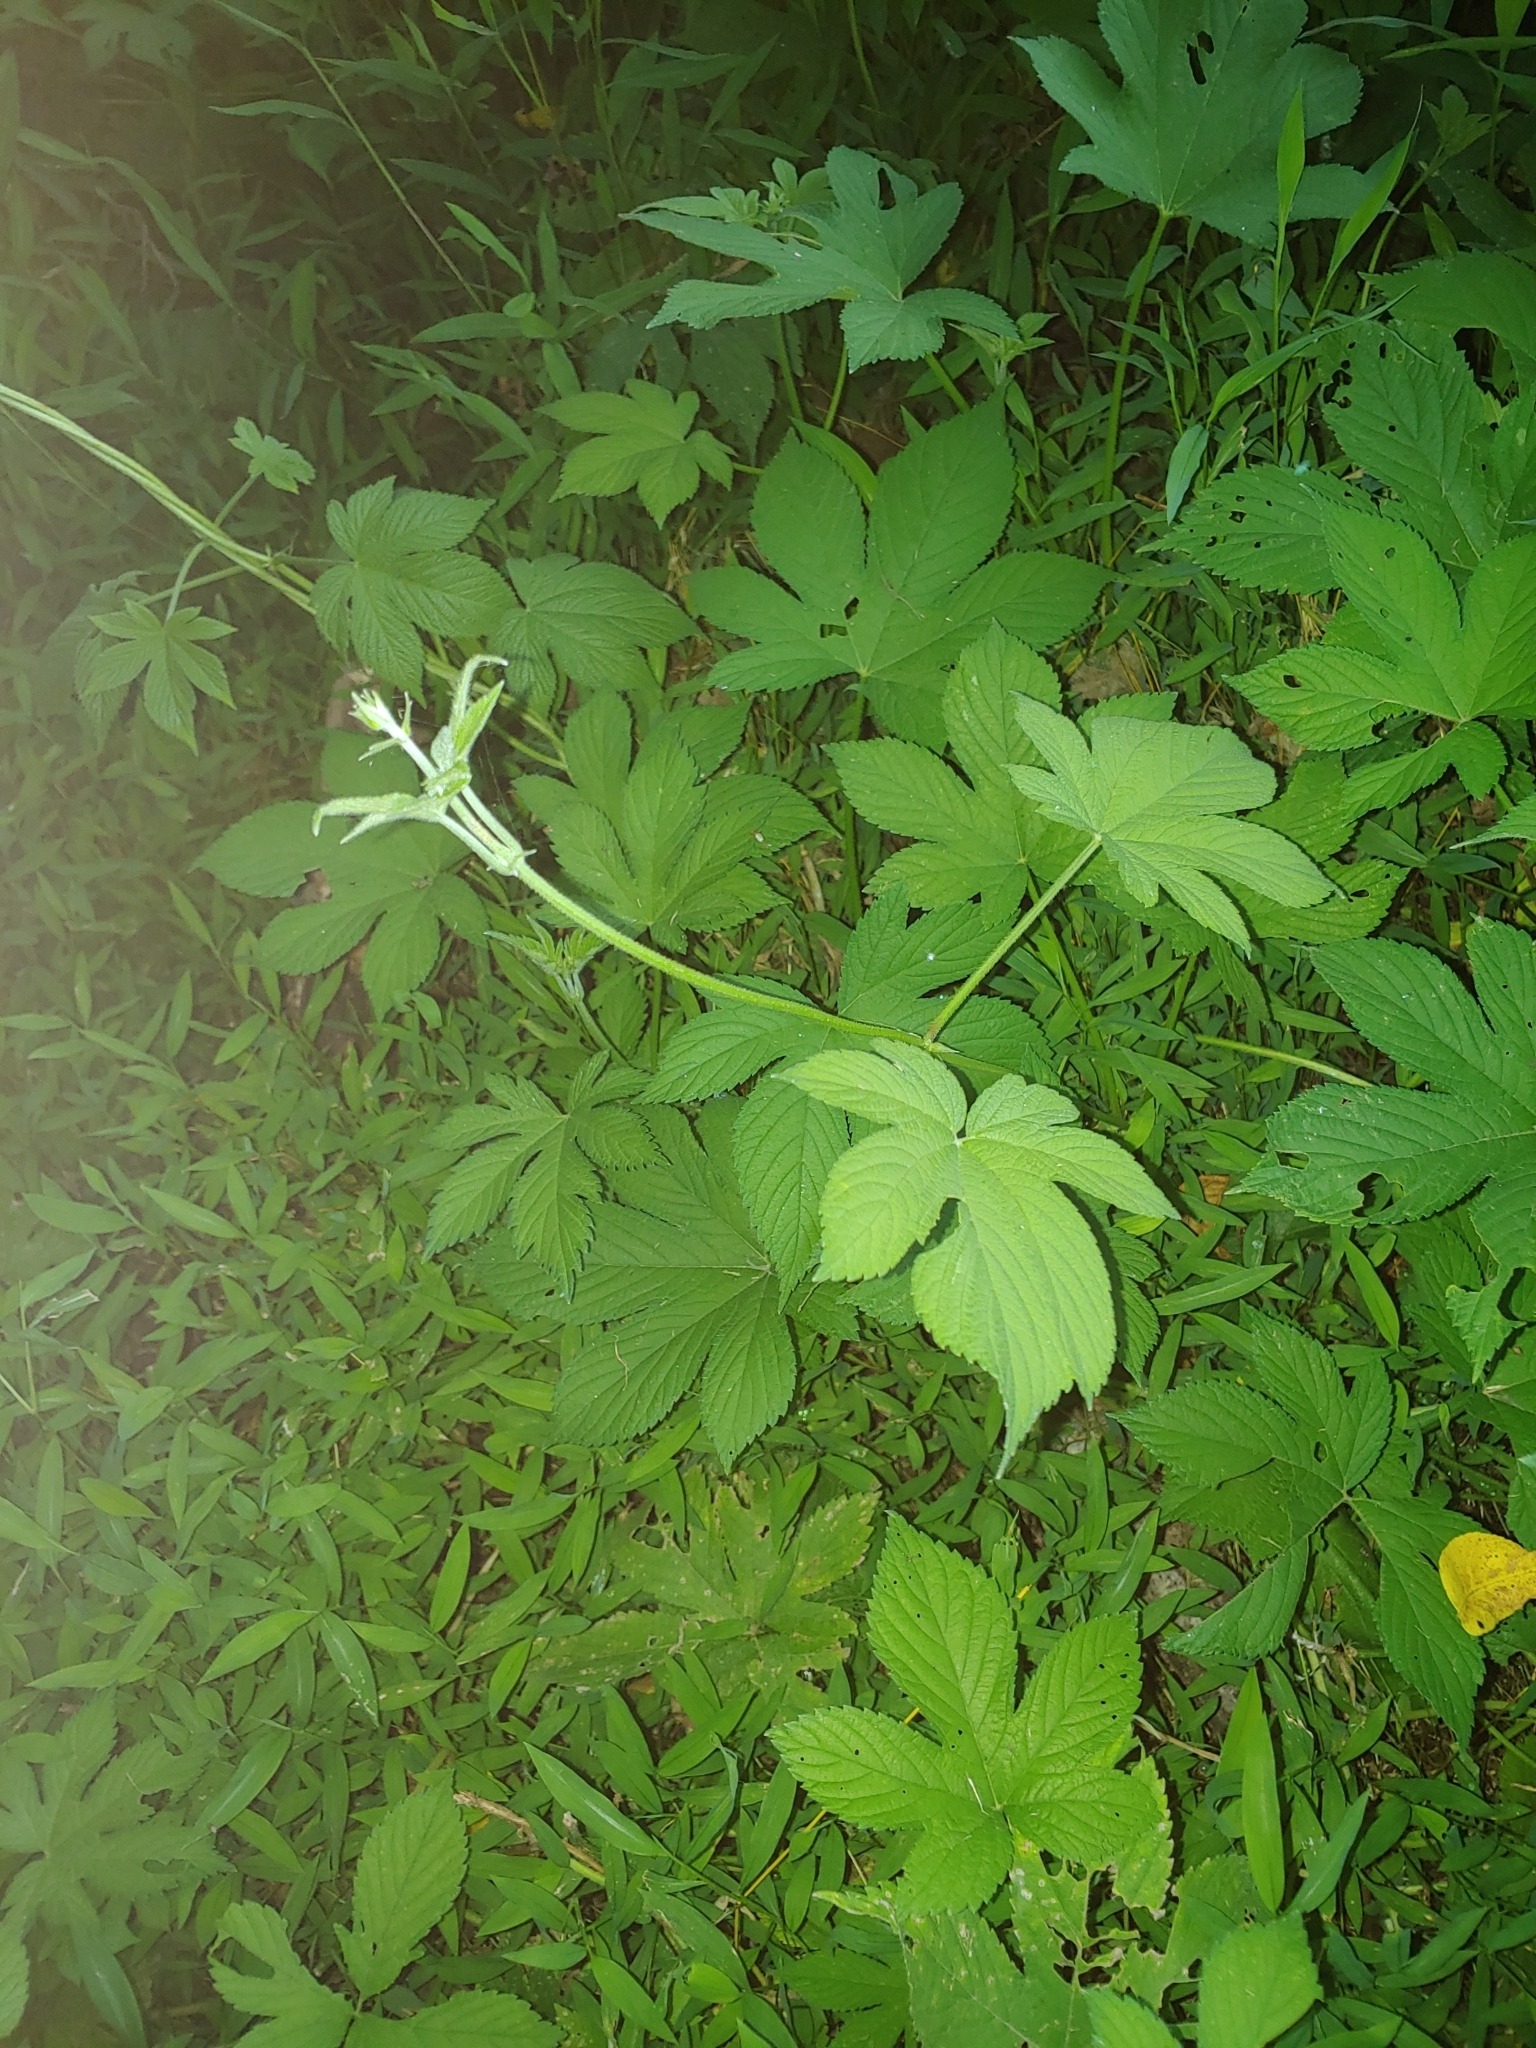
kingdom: Plantae
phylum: Tracheophyta
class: Magnoliopsida
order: Rosales
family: Cannabaceae
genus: Humulus
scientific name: Humulus scandens
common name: Japanese hop
